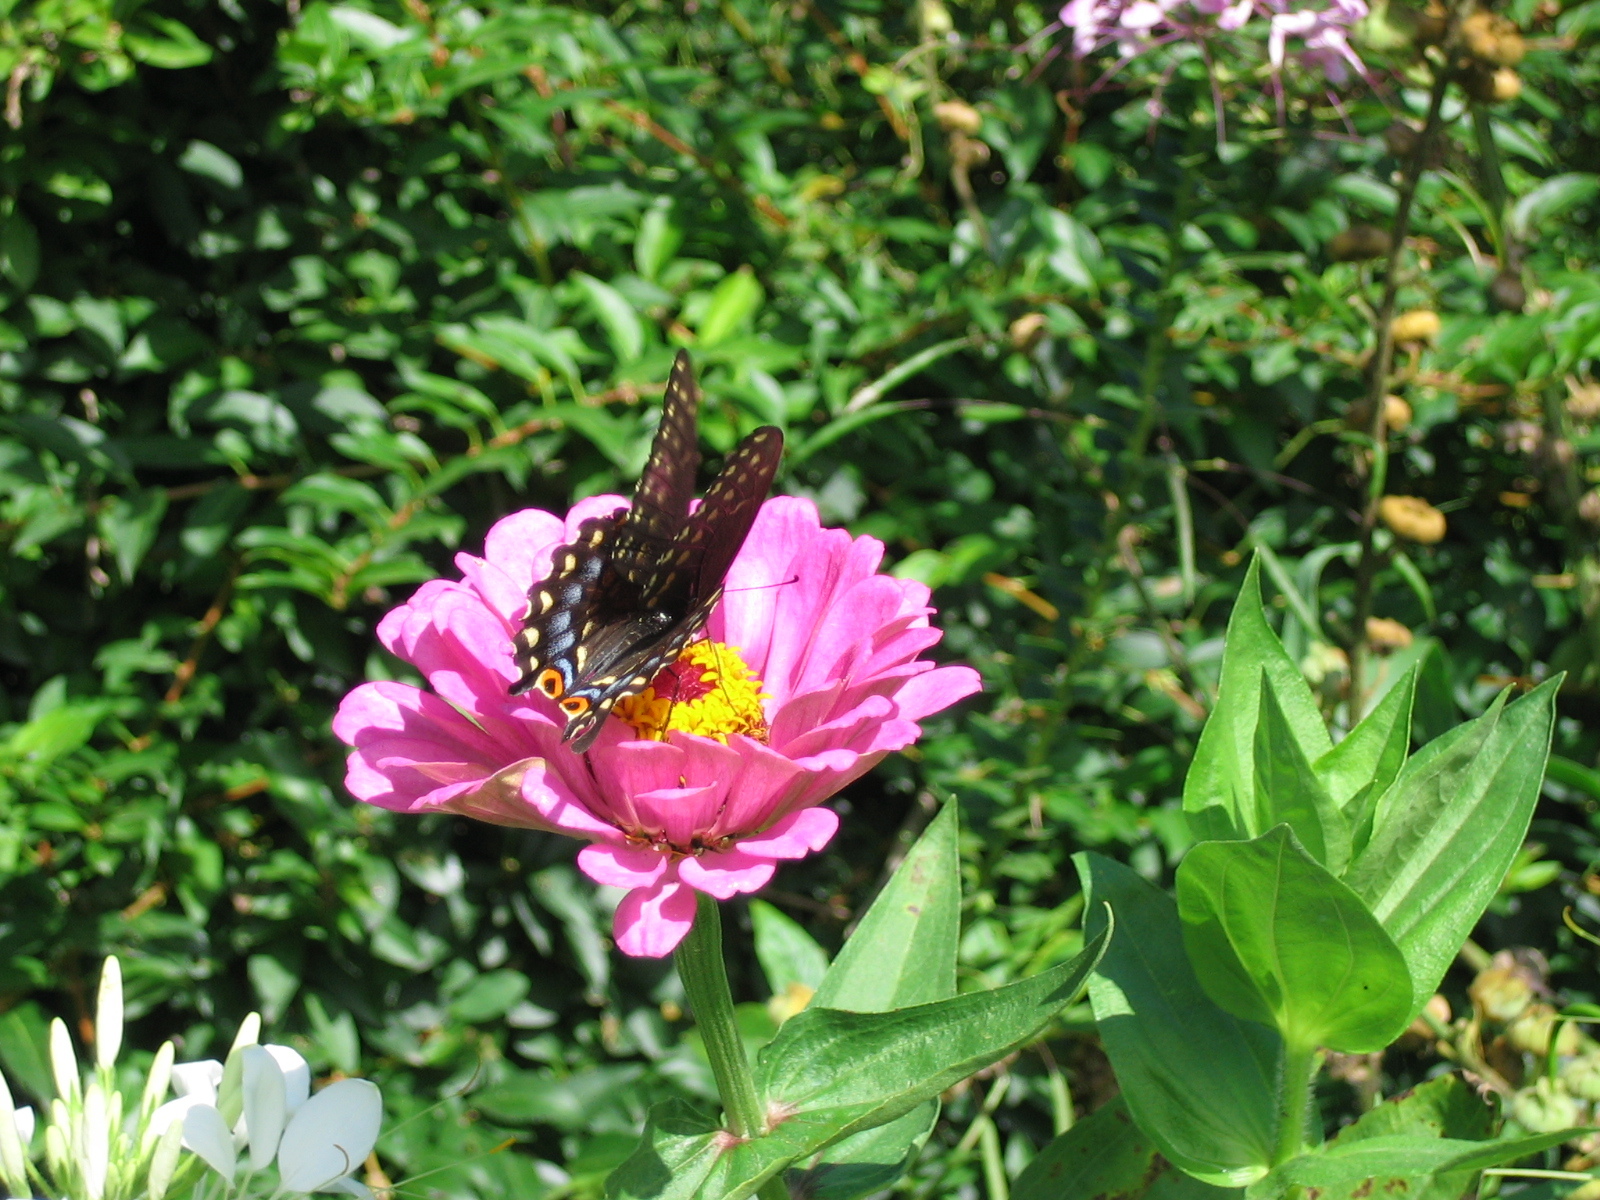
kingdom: Animalia
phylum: Arthropoda
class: Insecta
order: Lepidoptera
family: Papilionidae
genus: Papilio
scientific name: Papilio polyxenes
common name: Black swallowtail
